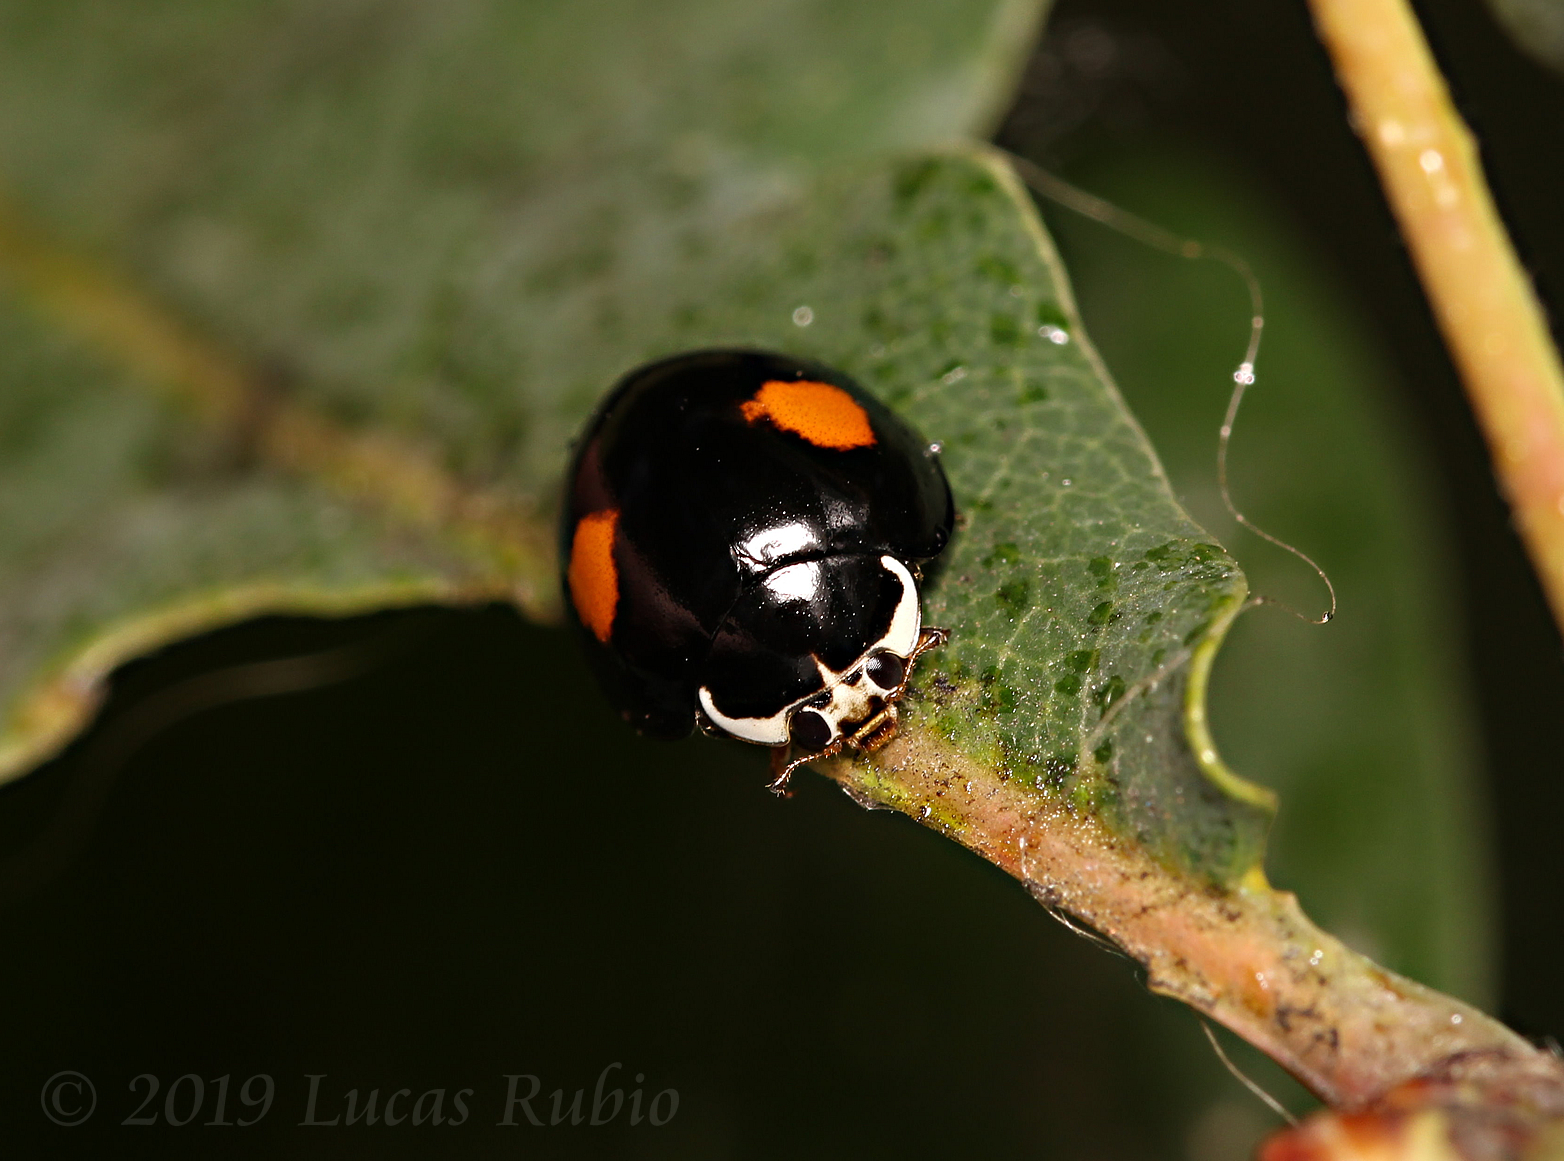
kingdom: Animalia
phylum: Arthropoda
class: Insecta
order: Coleoptera
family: Coccinellidae
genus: Olla
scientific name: Olla v-nigrum
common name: Ashy gray lady beetle
